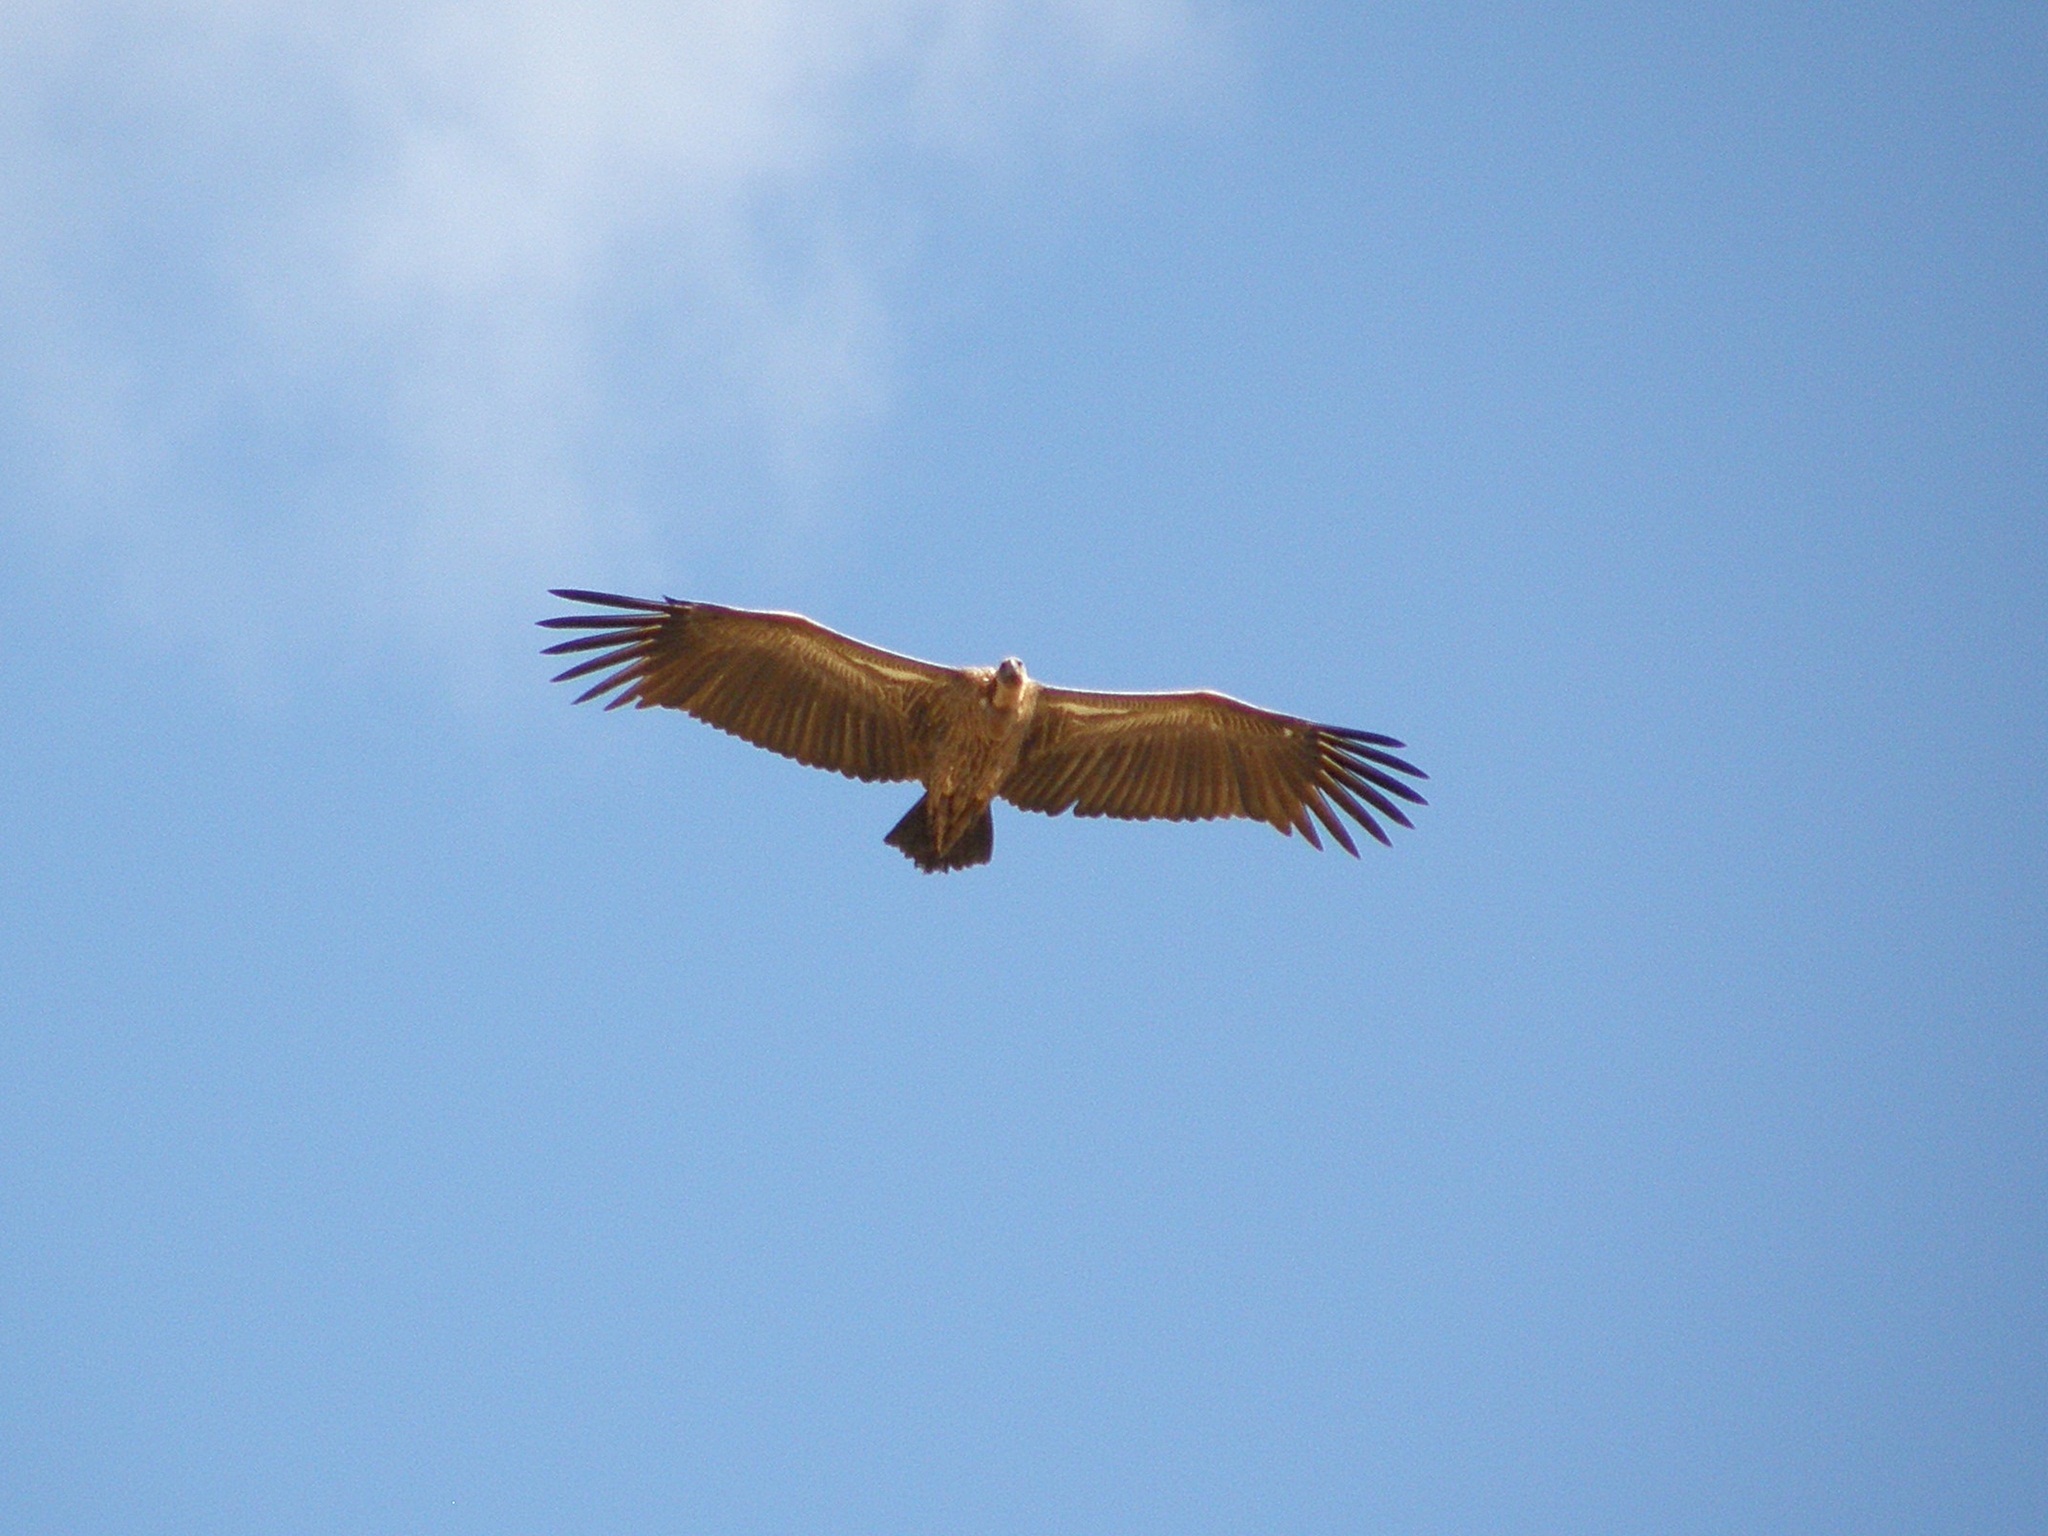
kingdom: Animalia
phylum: Chordata
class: Aves
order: Accipitriformes
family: Accipitridae
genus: Gyps
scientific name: Gyps rueppellii
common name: Rüppell's vulture
